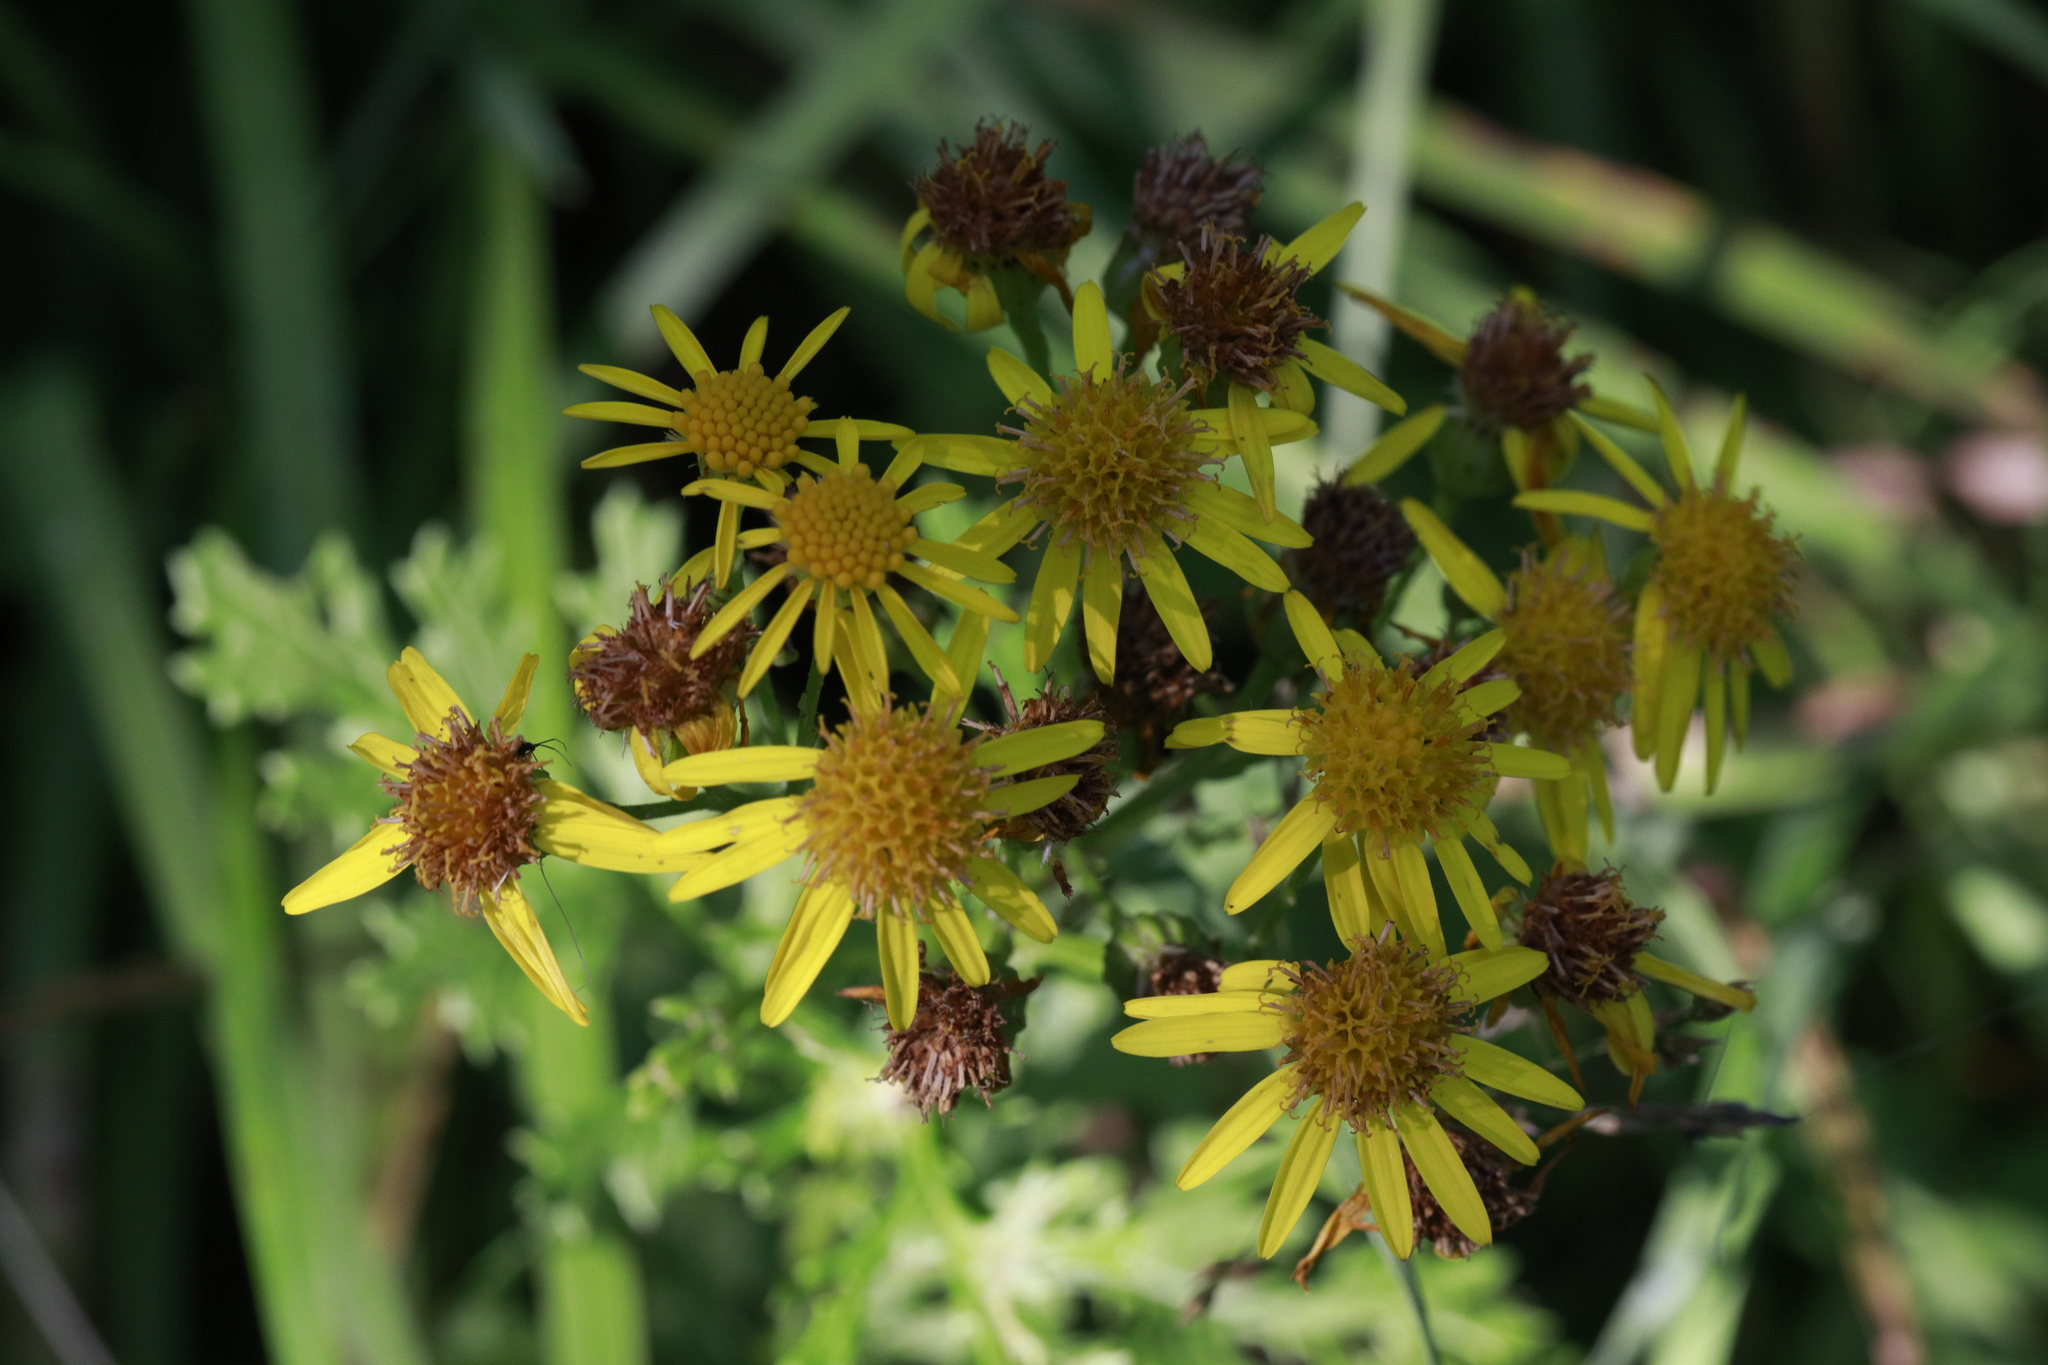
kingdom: Plantae
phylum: Tracheophyta
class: Magnoliopsida
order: Asterales
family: Asteraceae
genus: Jacobaea
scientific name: Jacobaea vulgaris
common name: Stinking willie
